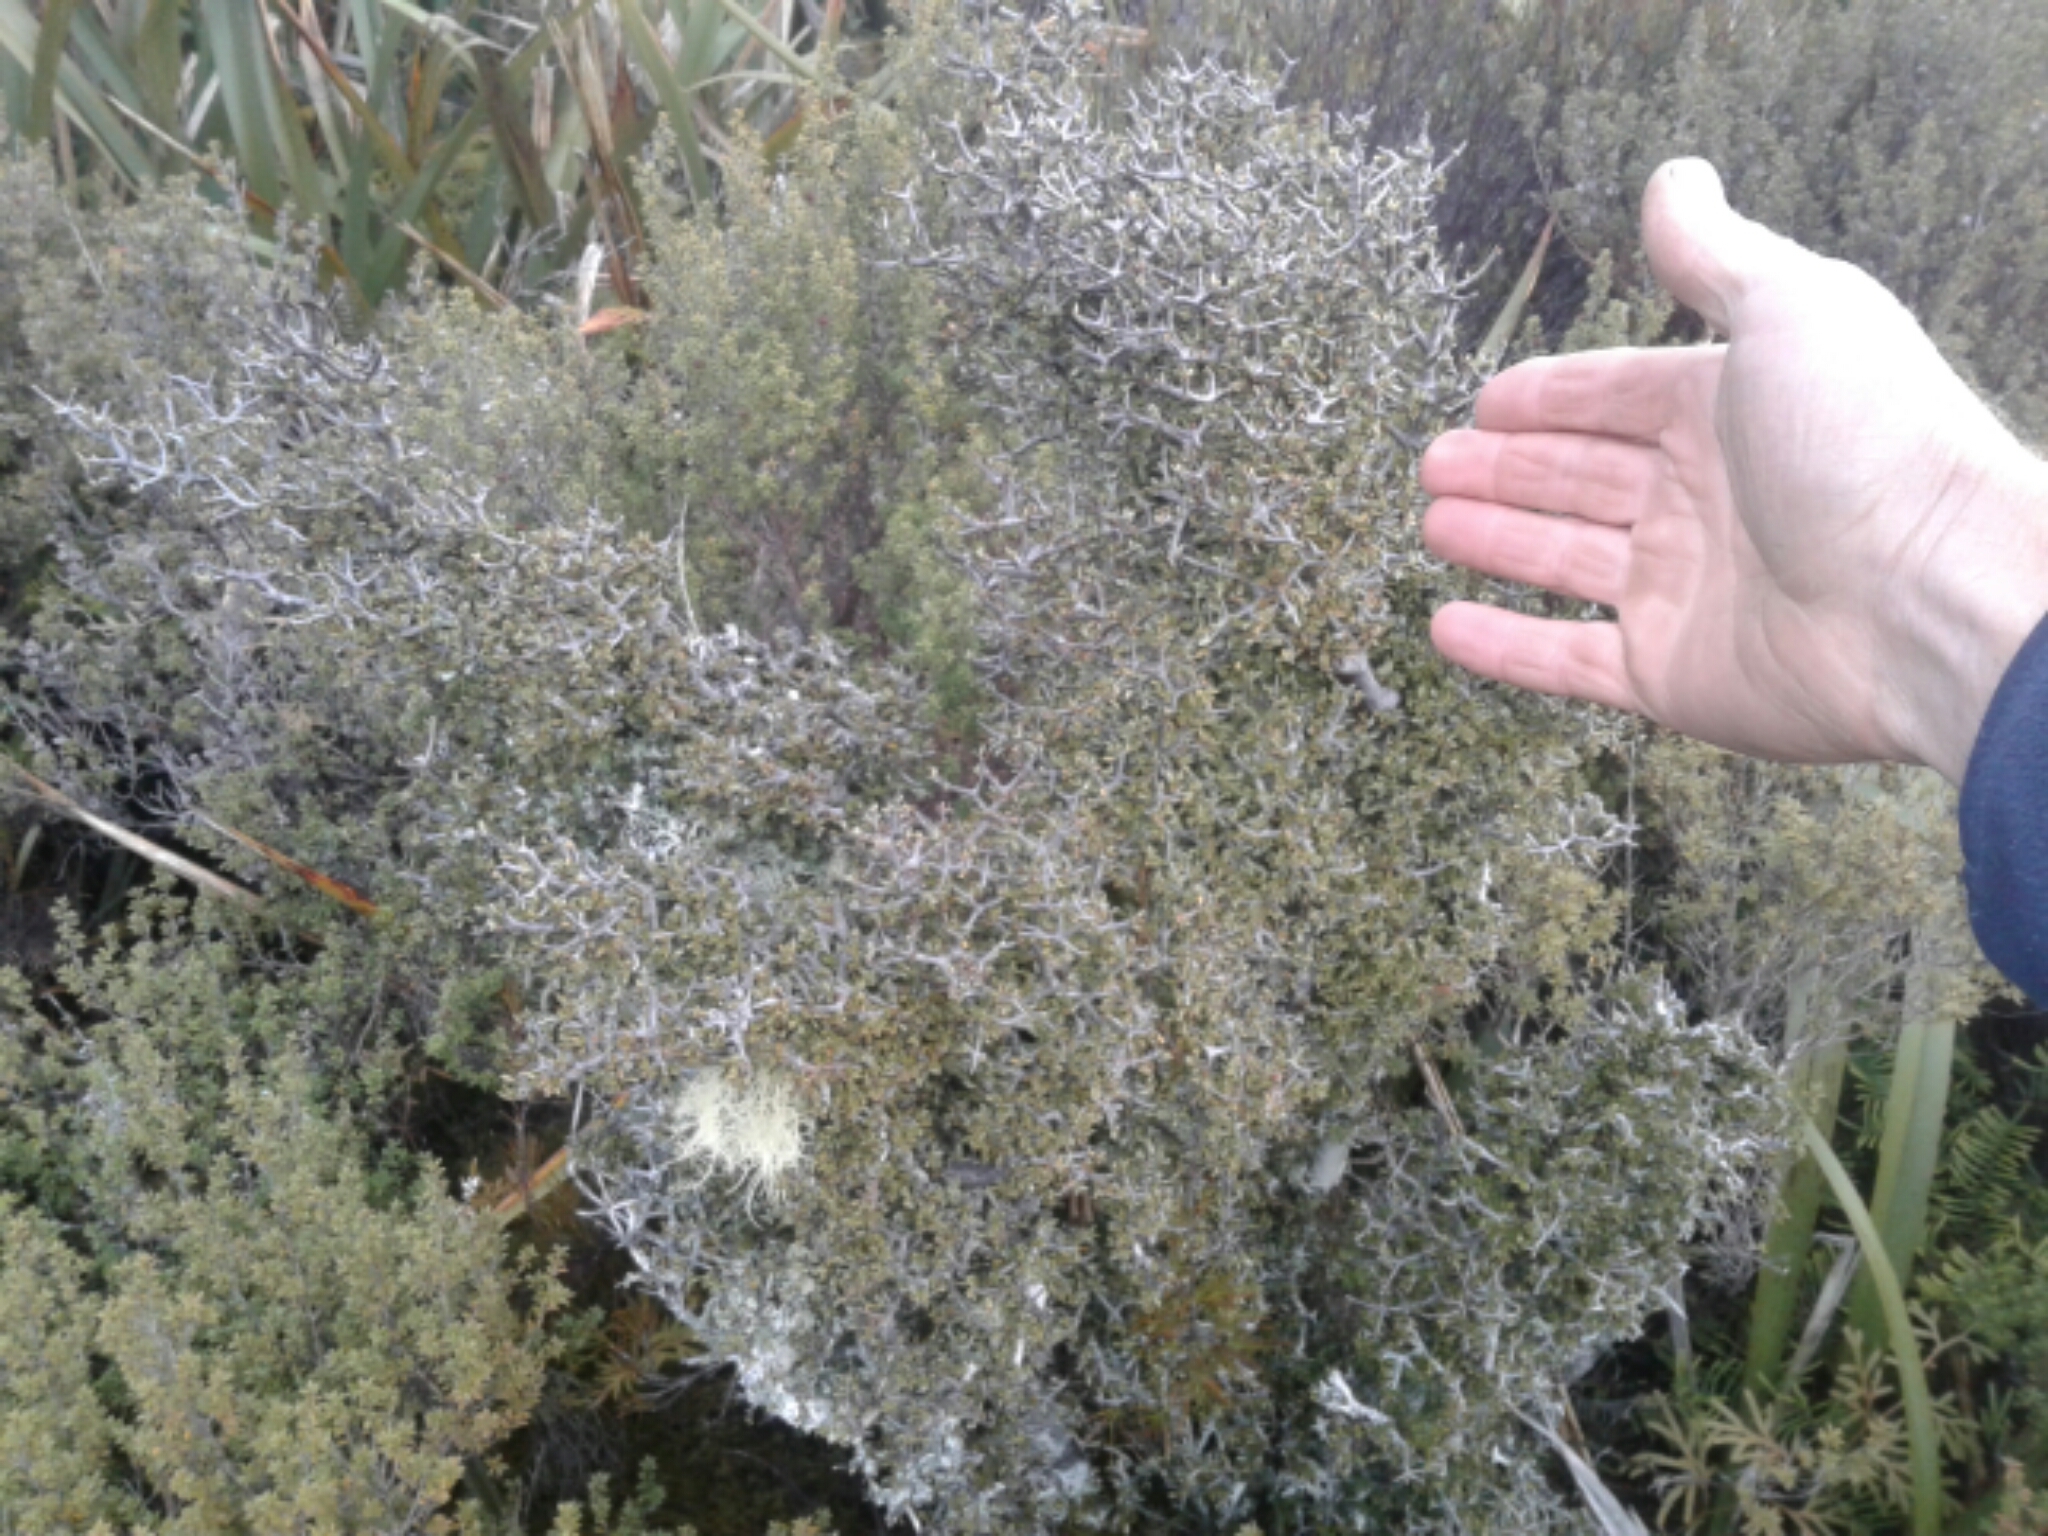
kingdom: Plantae
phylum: Tracheophyta
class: Magnoliopsida
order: Apiales
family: Pittosporaceae
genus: Pittosporum
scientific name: Pittosporum rigidum
